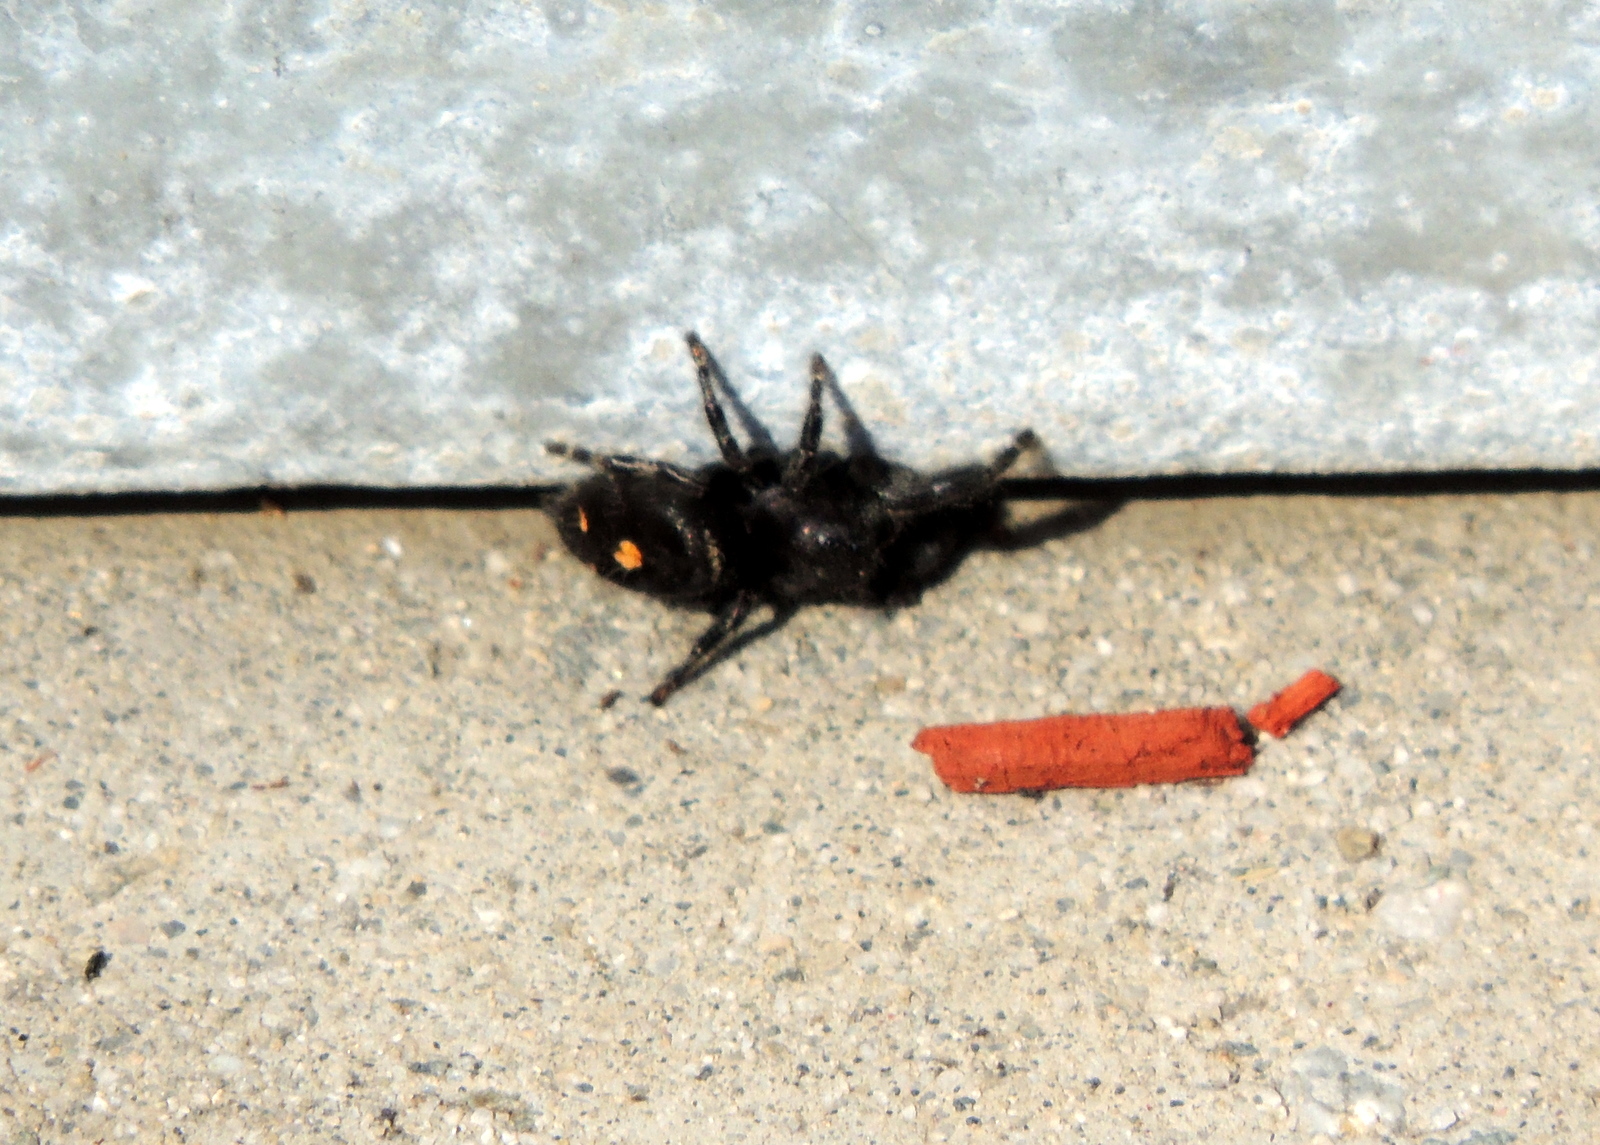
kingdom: Animalia
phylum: Arthropoda
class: Arachnida
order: Araneae
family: Salticidae
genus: Phidippus
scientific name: Phidippus audax
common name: Bold jumper
